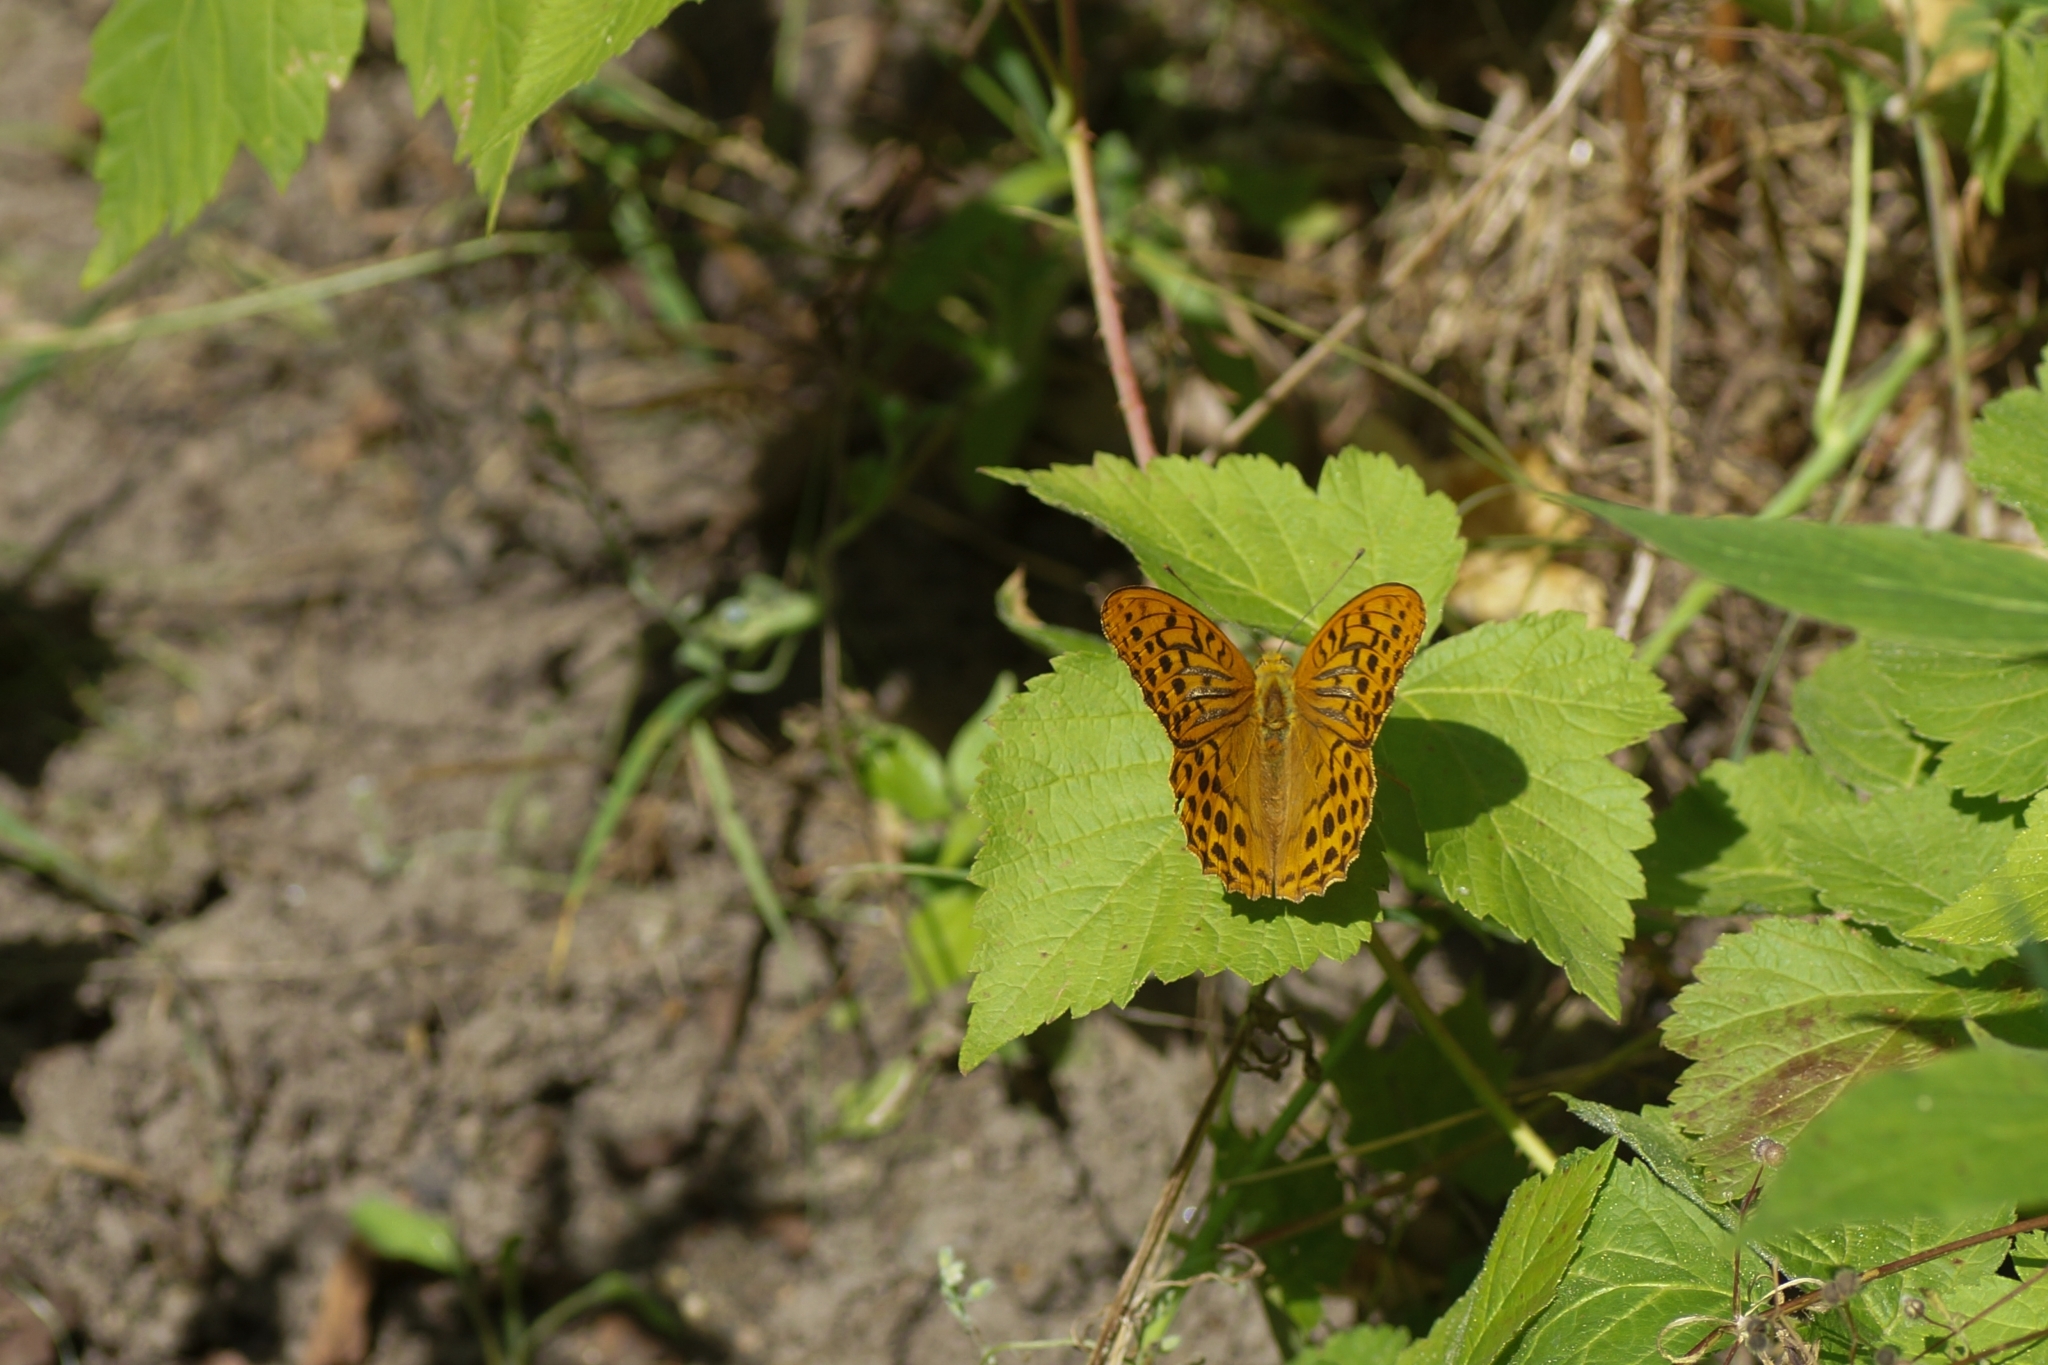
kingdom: Animalia
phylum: Arthropoda
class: Insecta
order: Lepidoptera
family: Nymphalidae
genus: Argynnis
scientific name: Argynnis paphia
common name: Silver-washed fritillary
